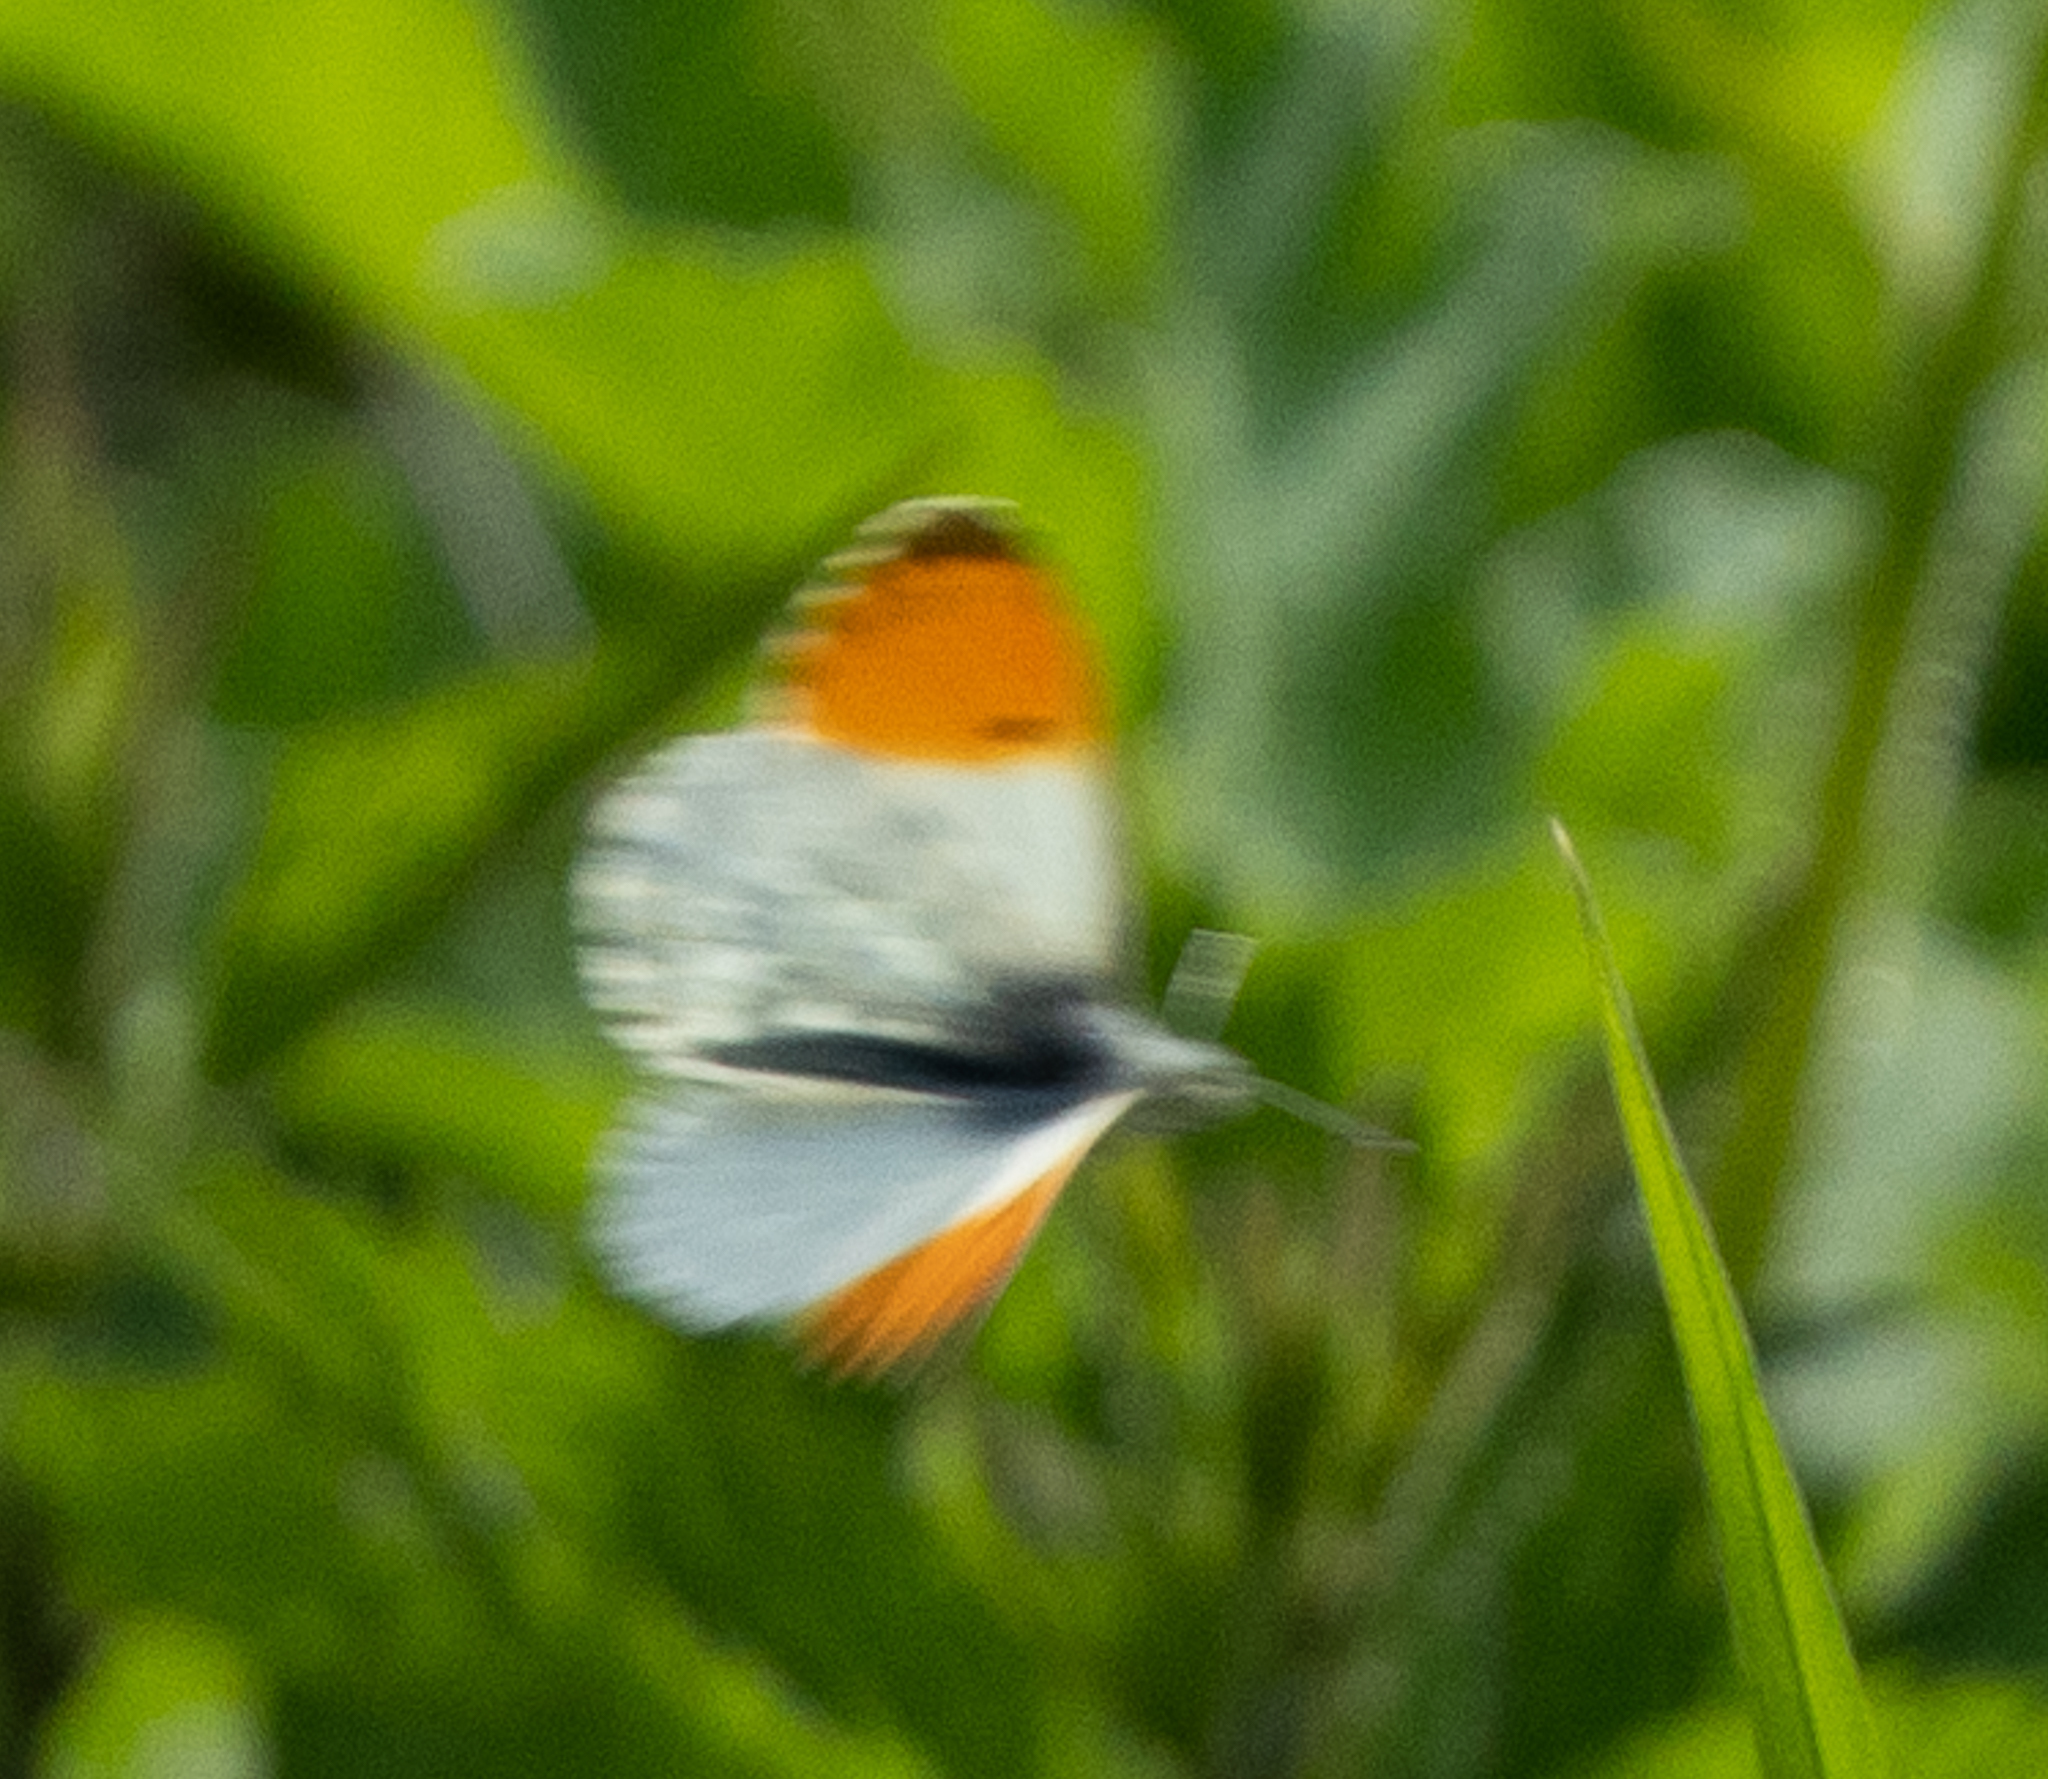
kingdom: Animalia
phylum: Arthropoda
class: Insecta
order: Lepidoptera
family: Pieridae
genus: Anthocharis
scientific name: Anthocharis cardamines
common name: Orange-tip
